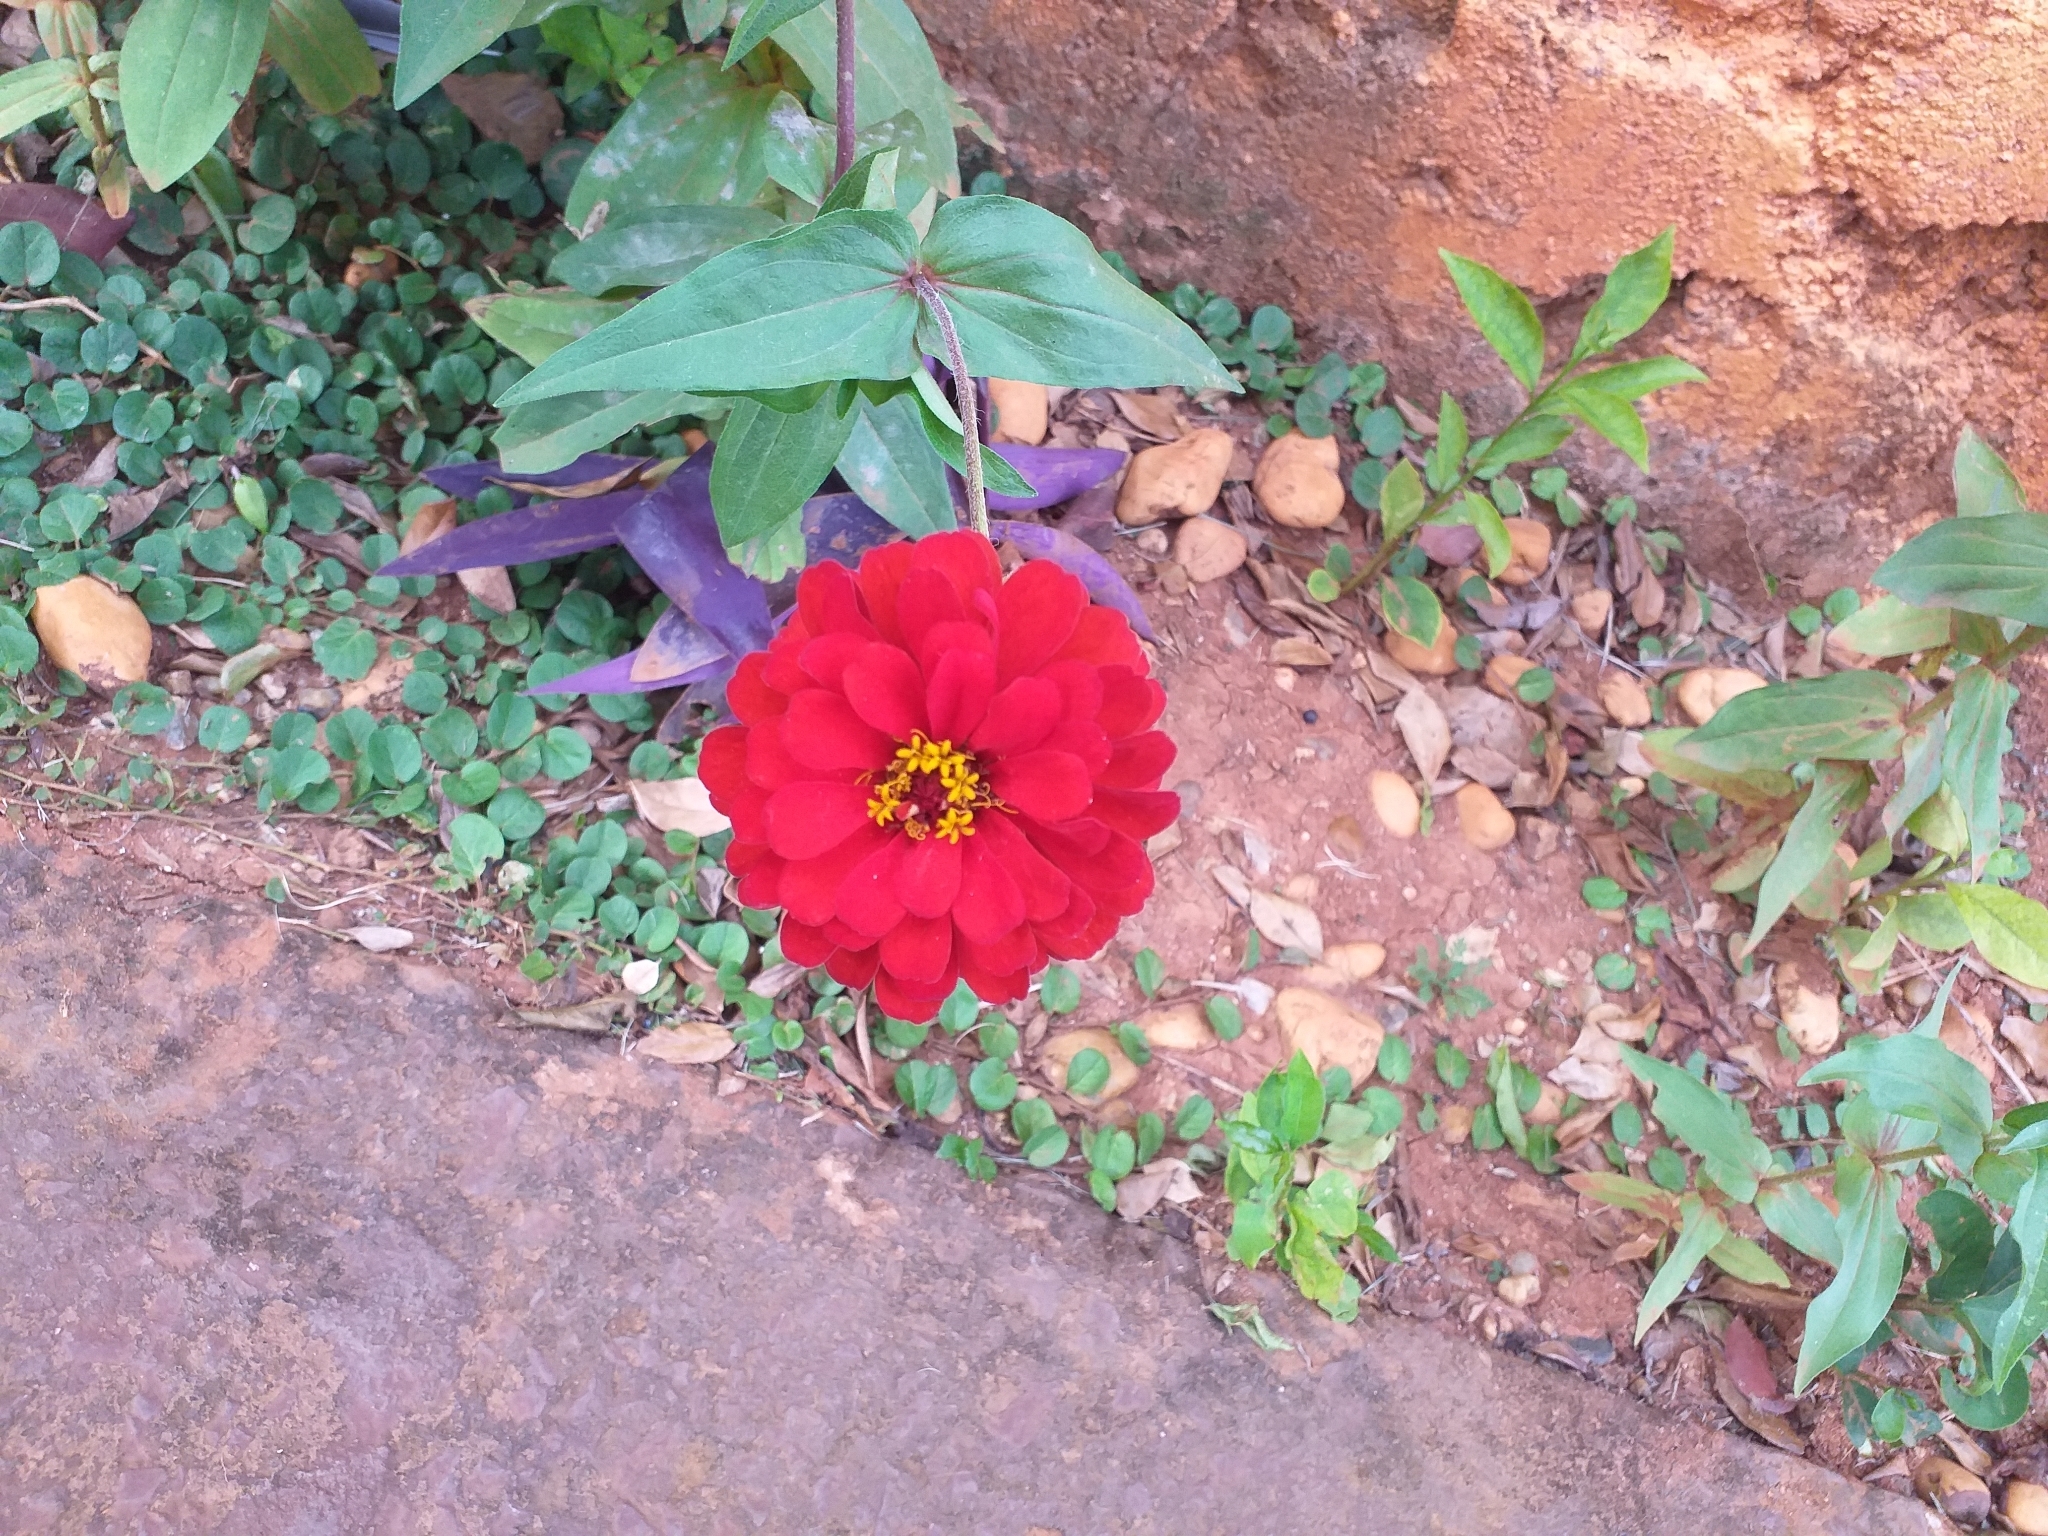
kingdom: Plantae
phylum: Tracheophyta
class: Magnoliopsida
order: Asterales
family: Asteraceae
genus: Zinnia
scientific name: Zinnia elegans
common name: Youth-and-age
